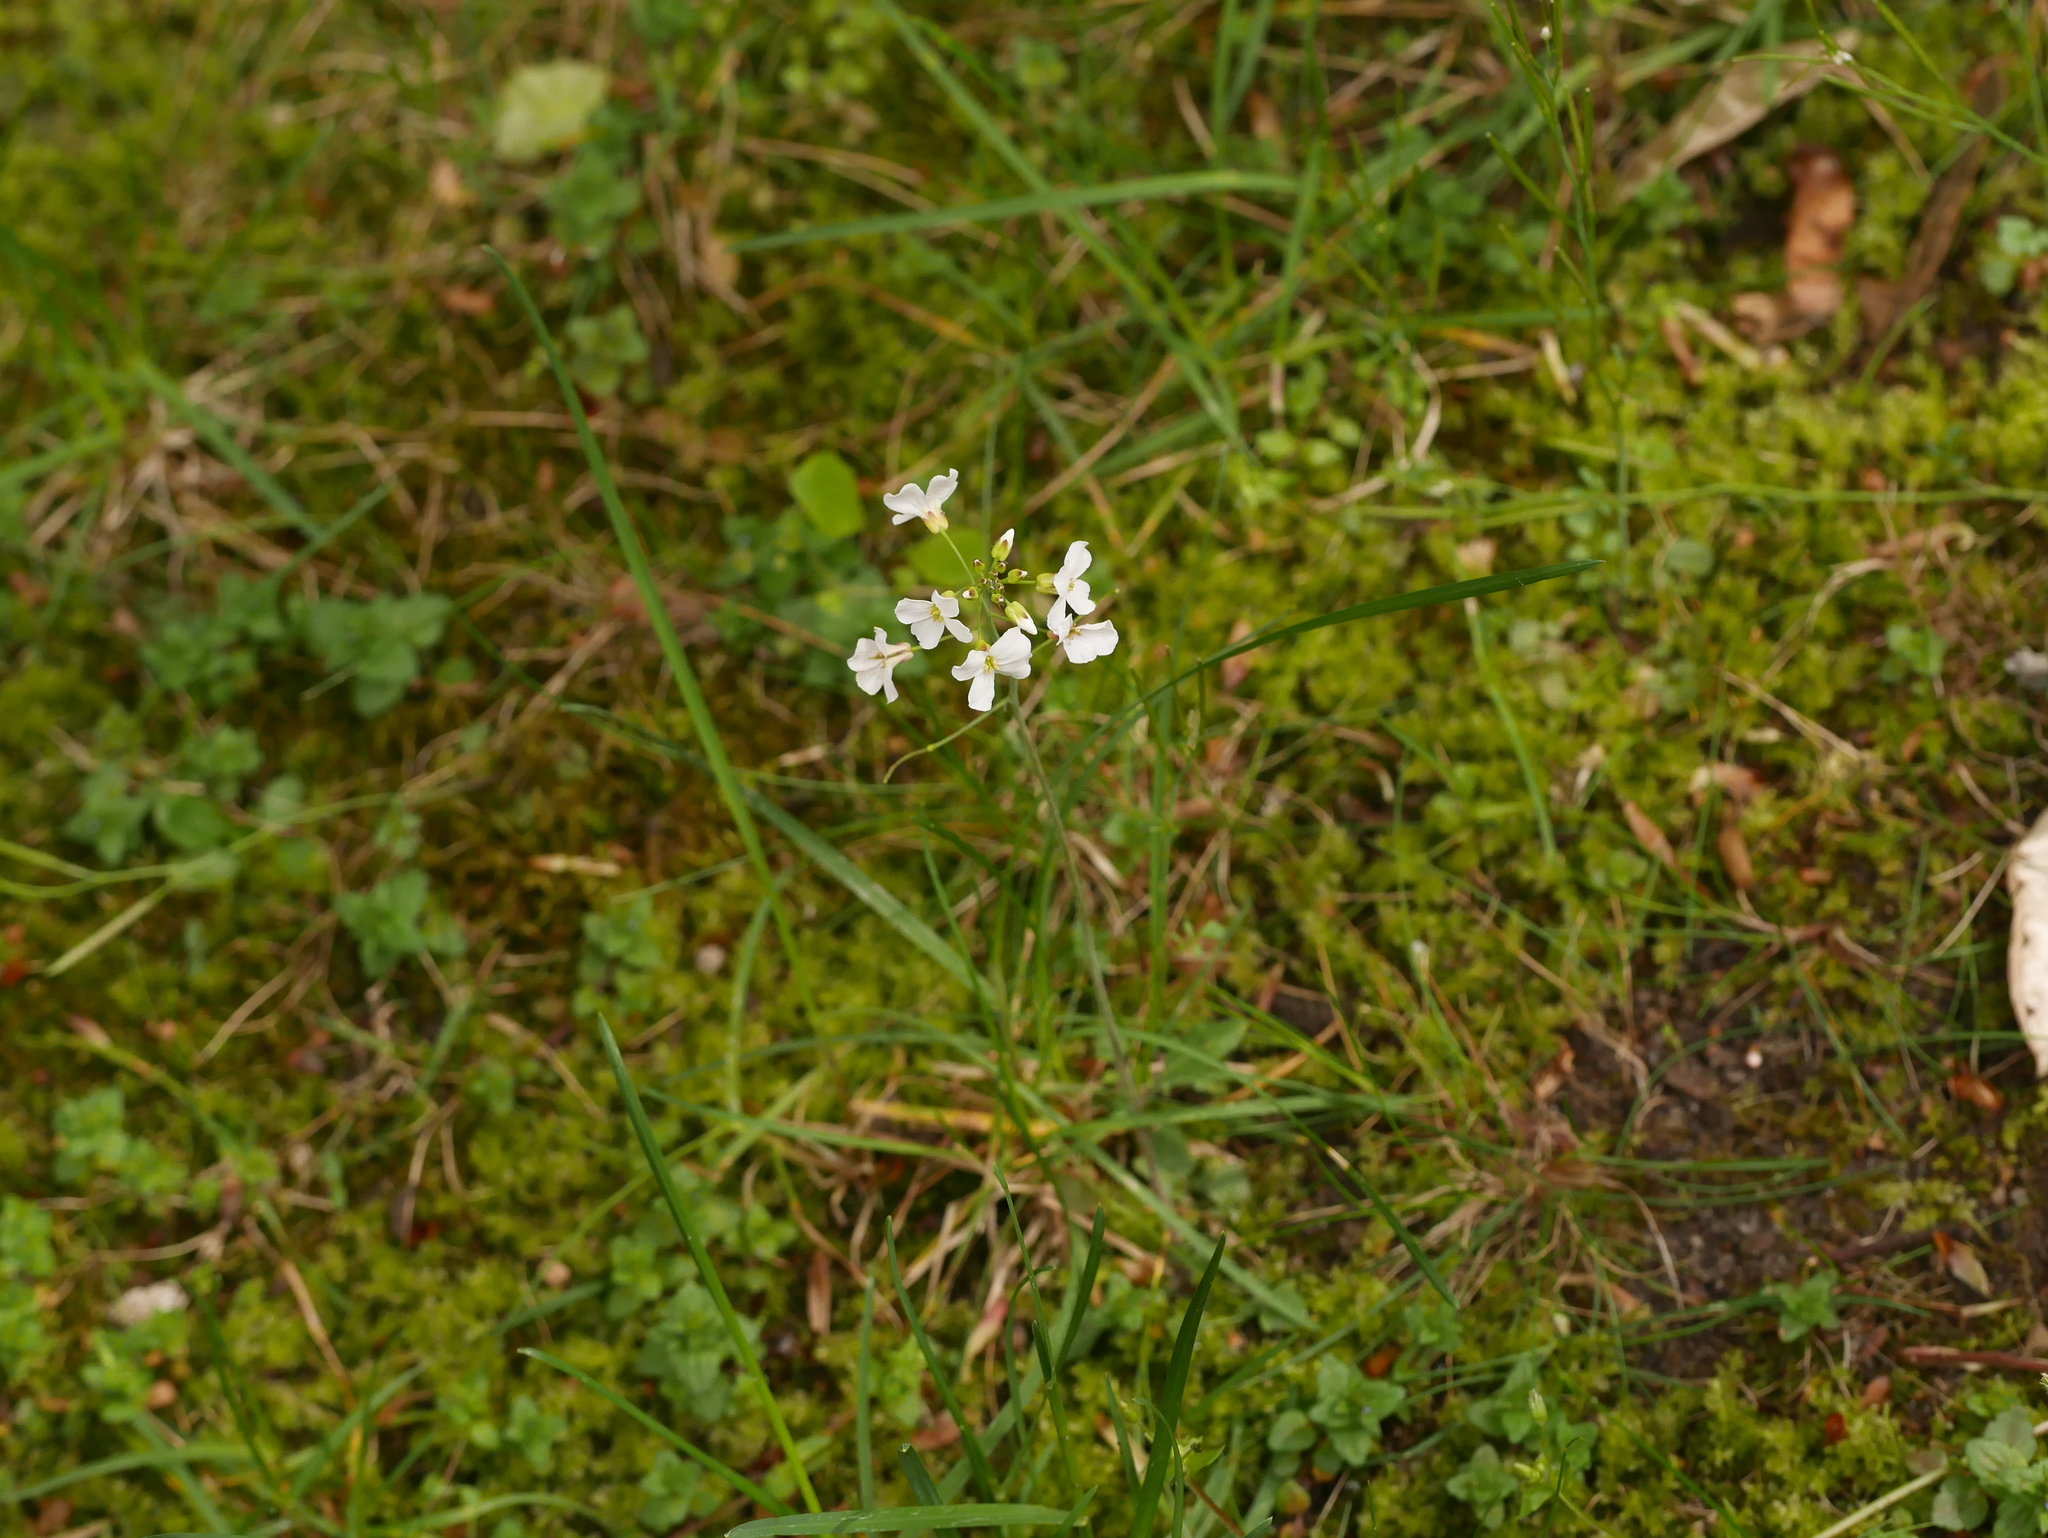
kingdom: Plantae
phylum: Tracheophyta
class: Magnoliopsida
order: Brassicales
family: Brassicaceae
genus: Cardamine
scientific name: Cardamine pratensis
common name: Cuckoo flower
